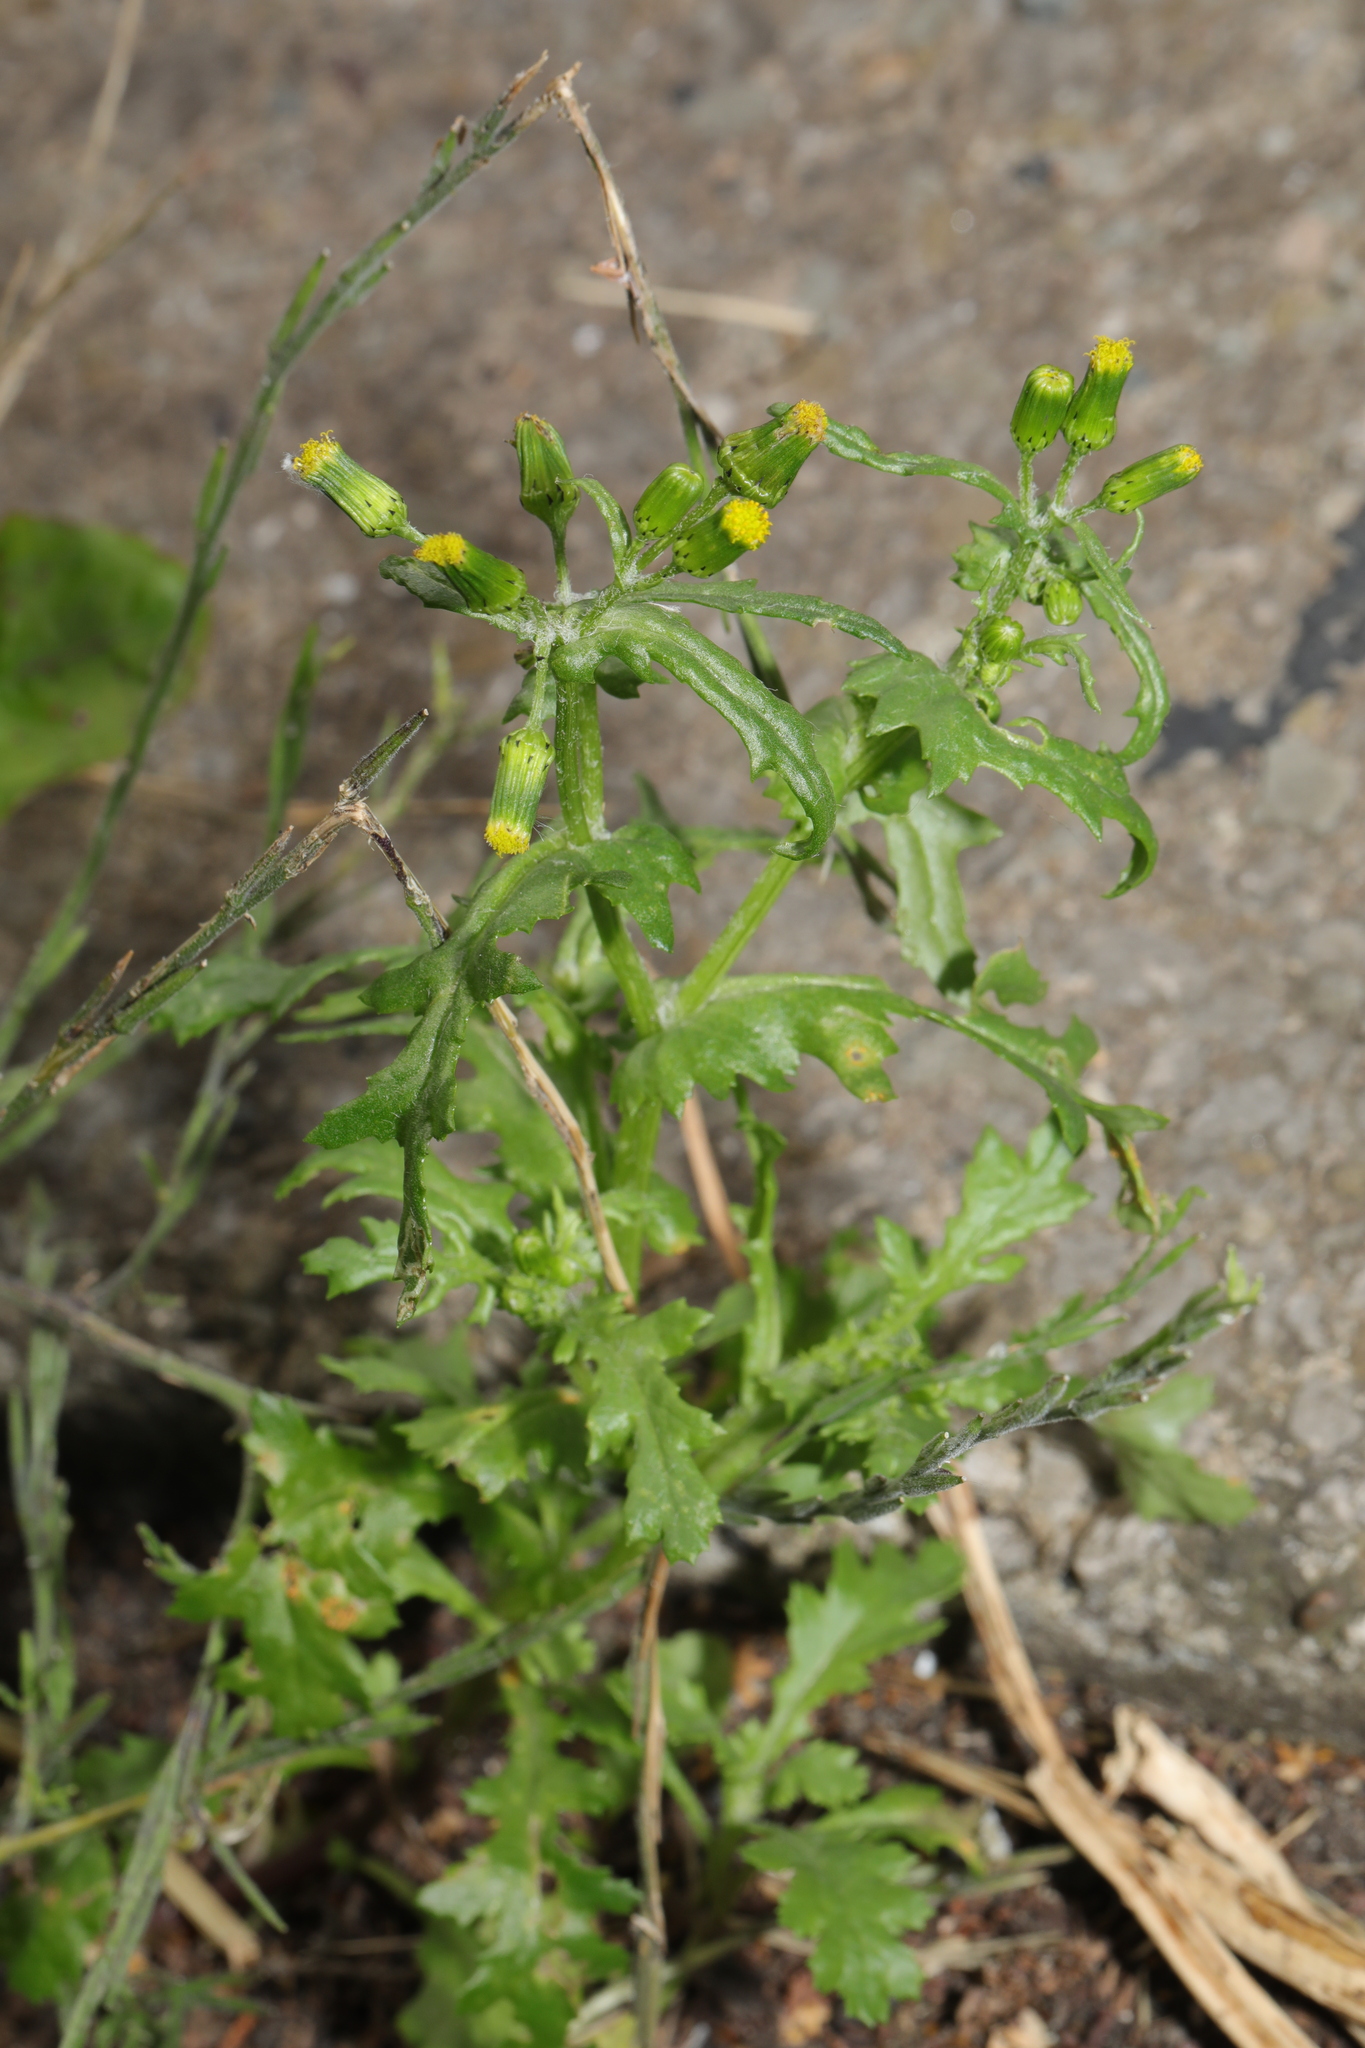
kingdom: Plantae
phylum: Tracheophyta
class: Magnoliopsida
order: Asterales
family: Asteraceae
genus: Senecio
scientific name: Senecio vulgaris
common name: Old-man-in-the-spring
